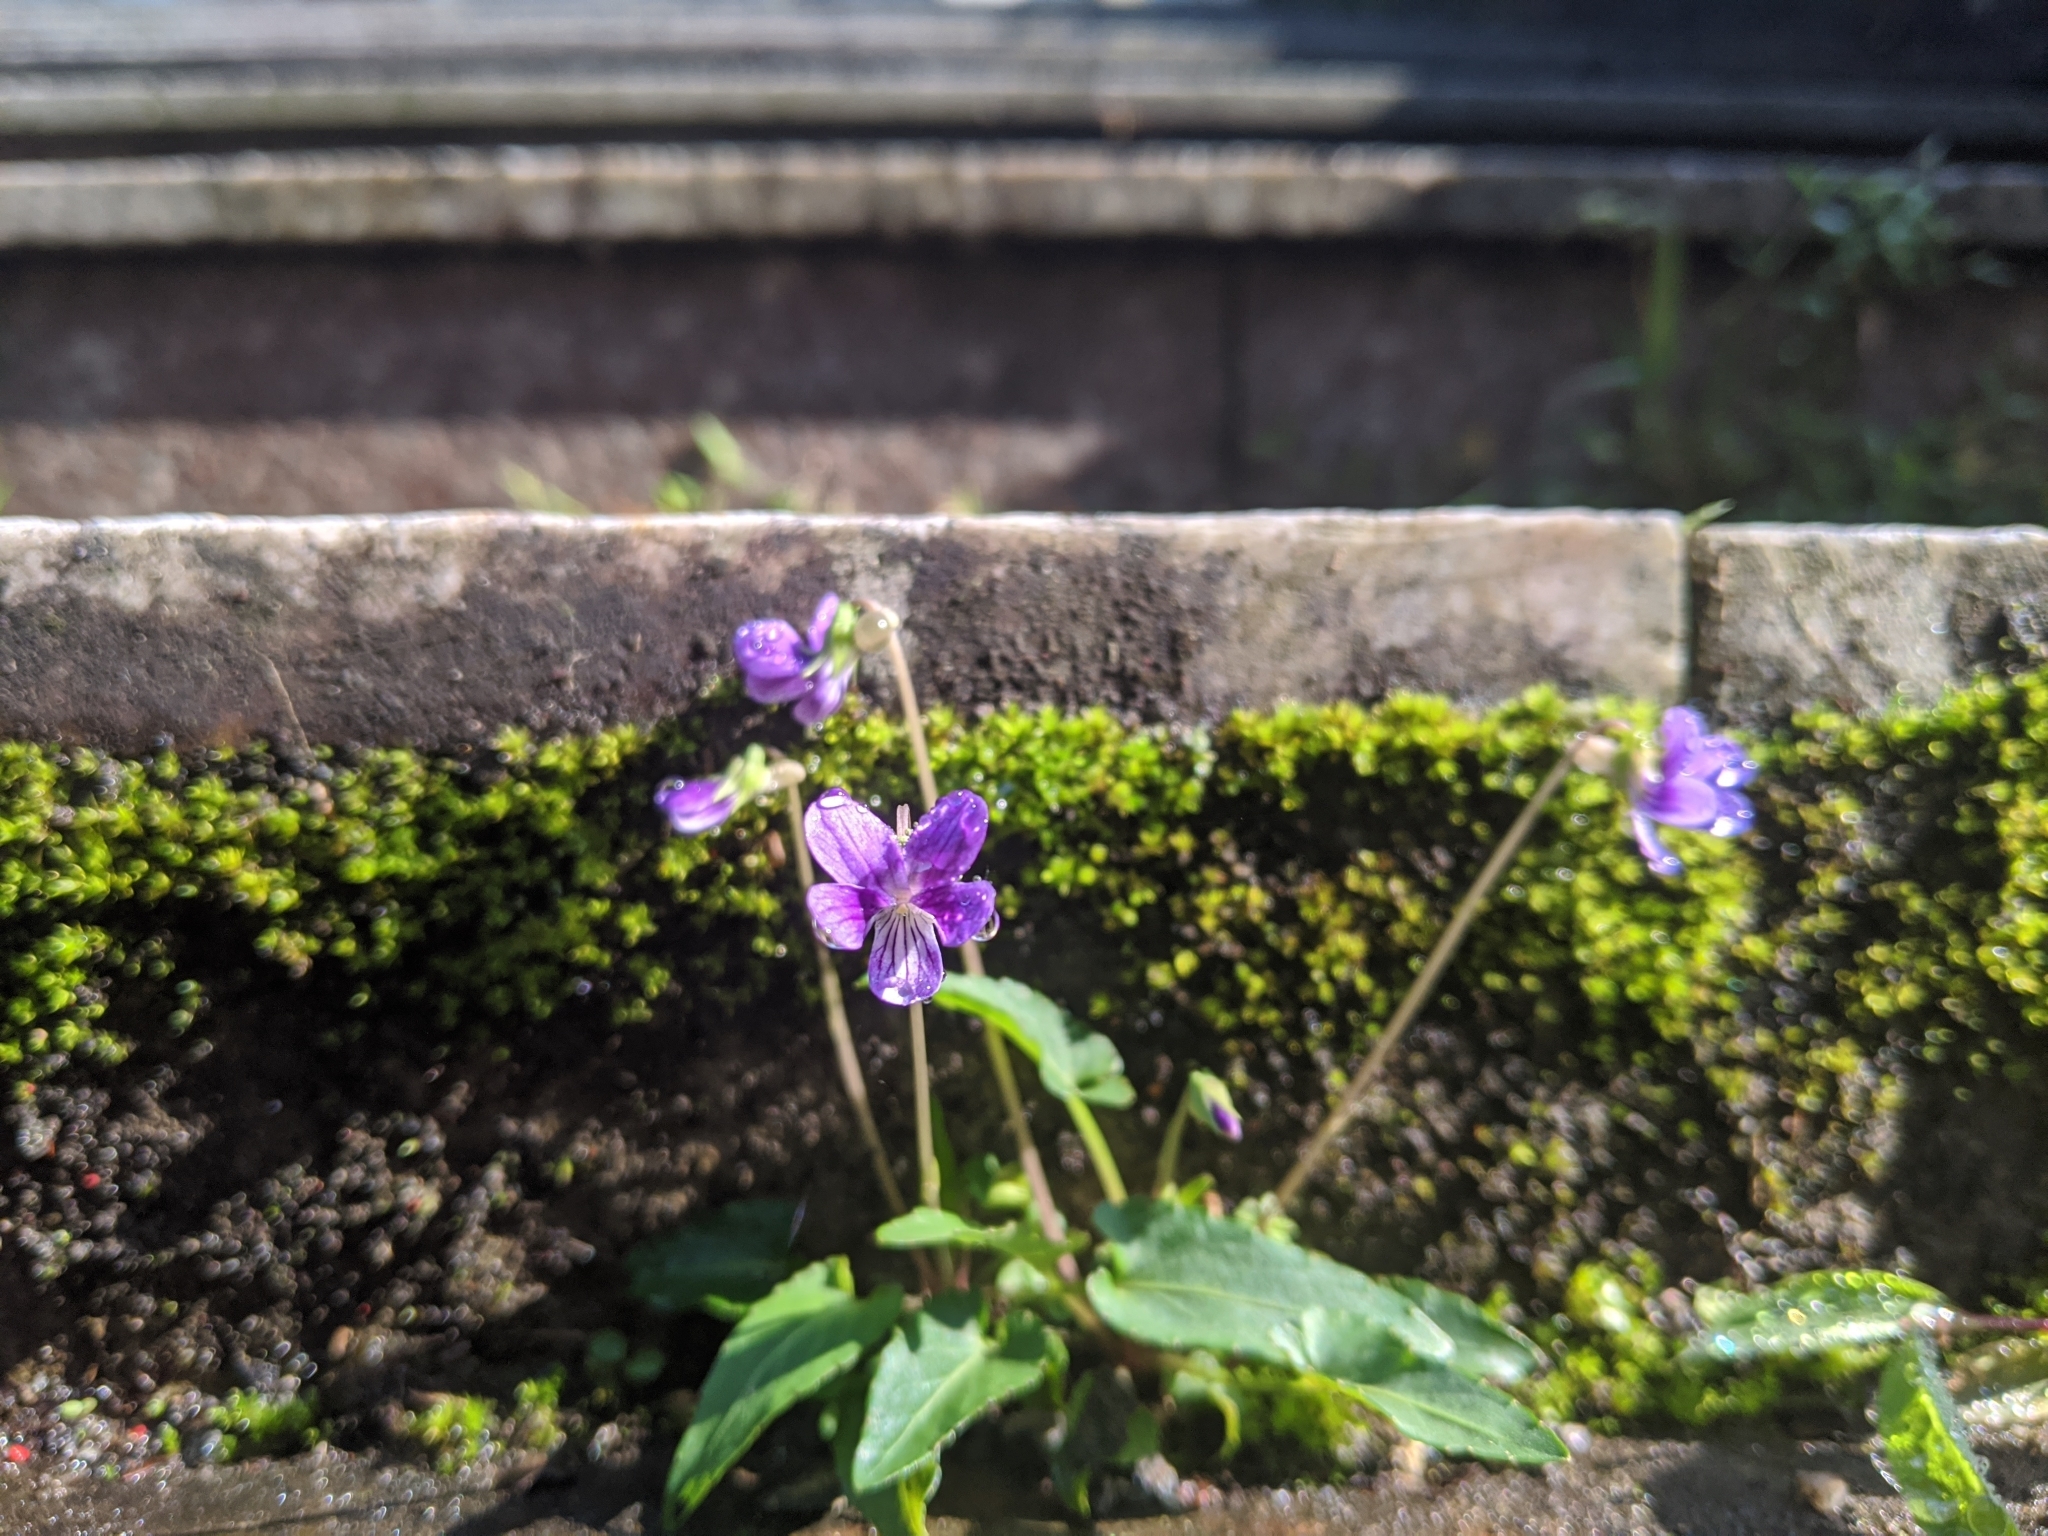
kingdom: Plantae
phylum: Tracheophyta
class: Magnoliopsida
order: Malpighiales
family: Violaceae
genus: Viola
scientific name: Viola inconspicua
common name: Long sepal violet
